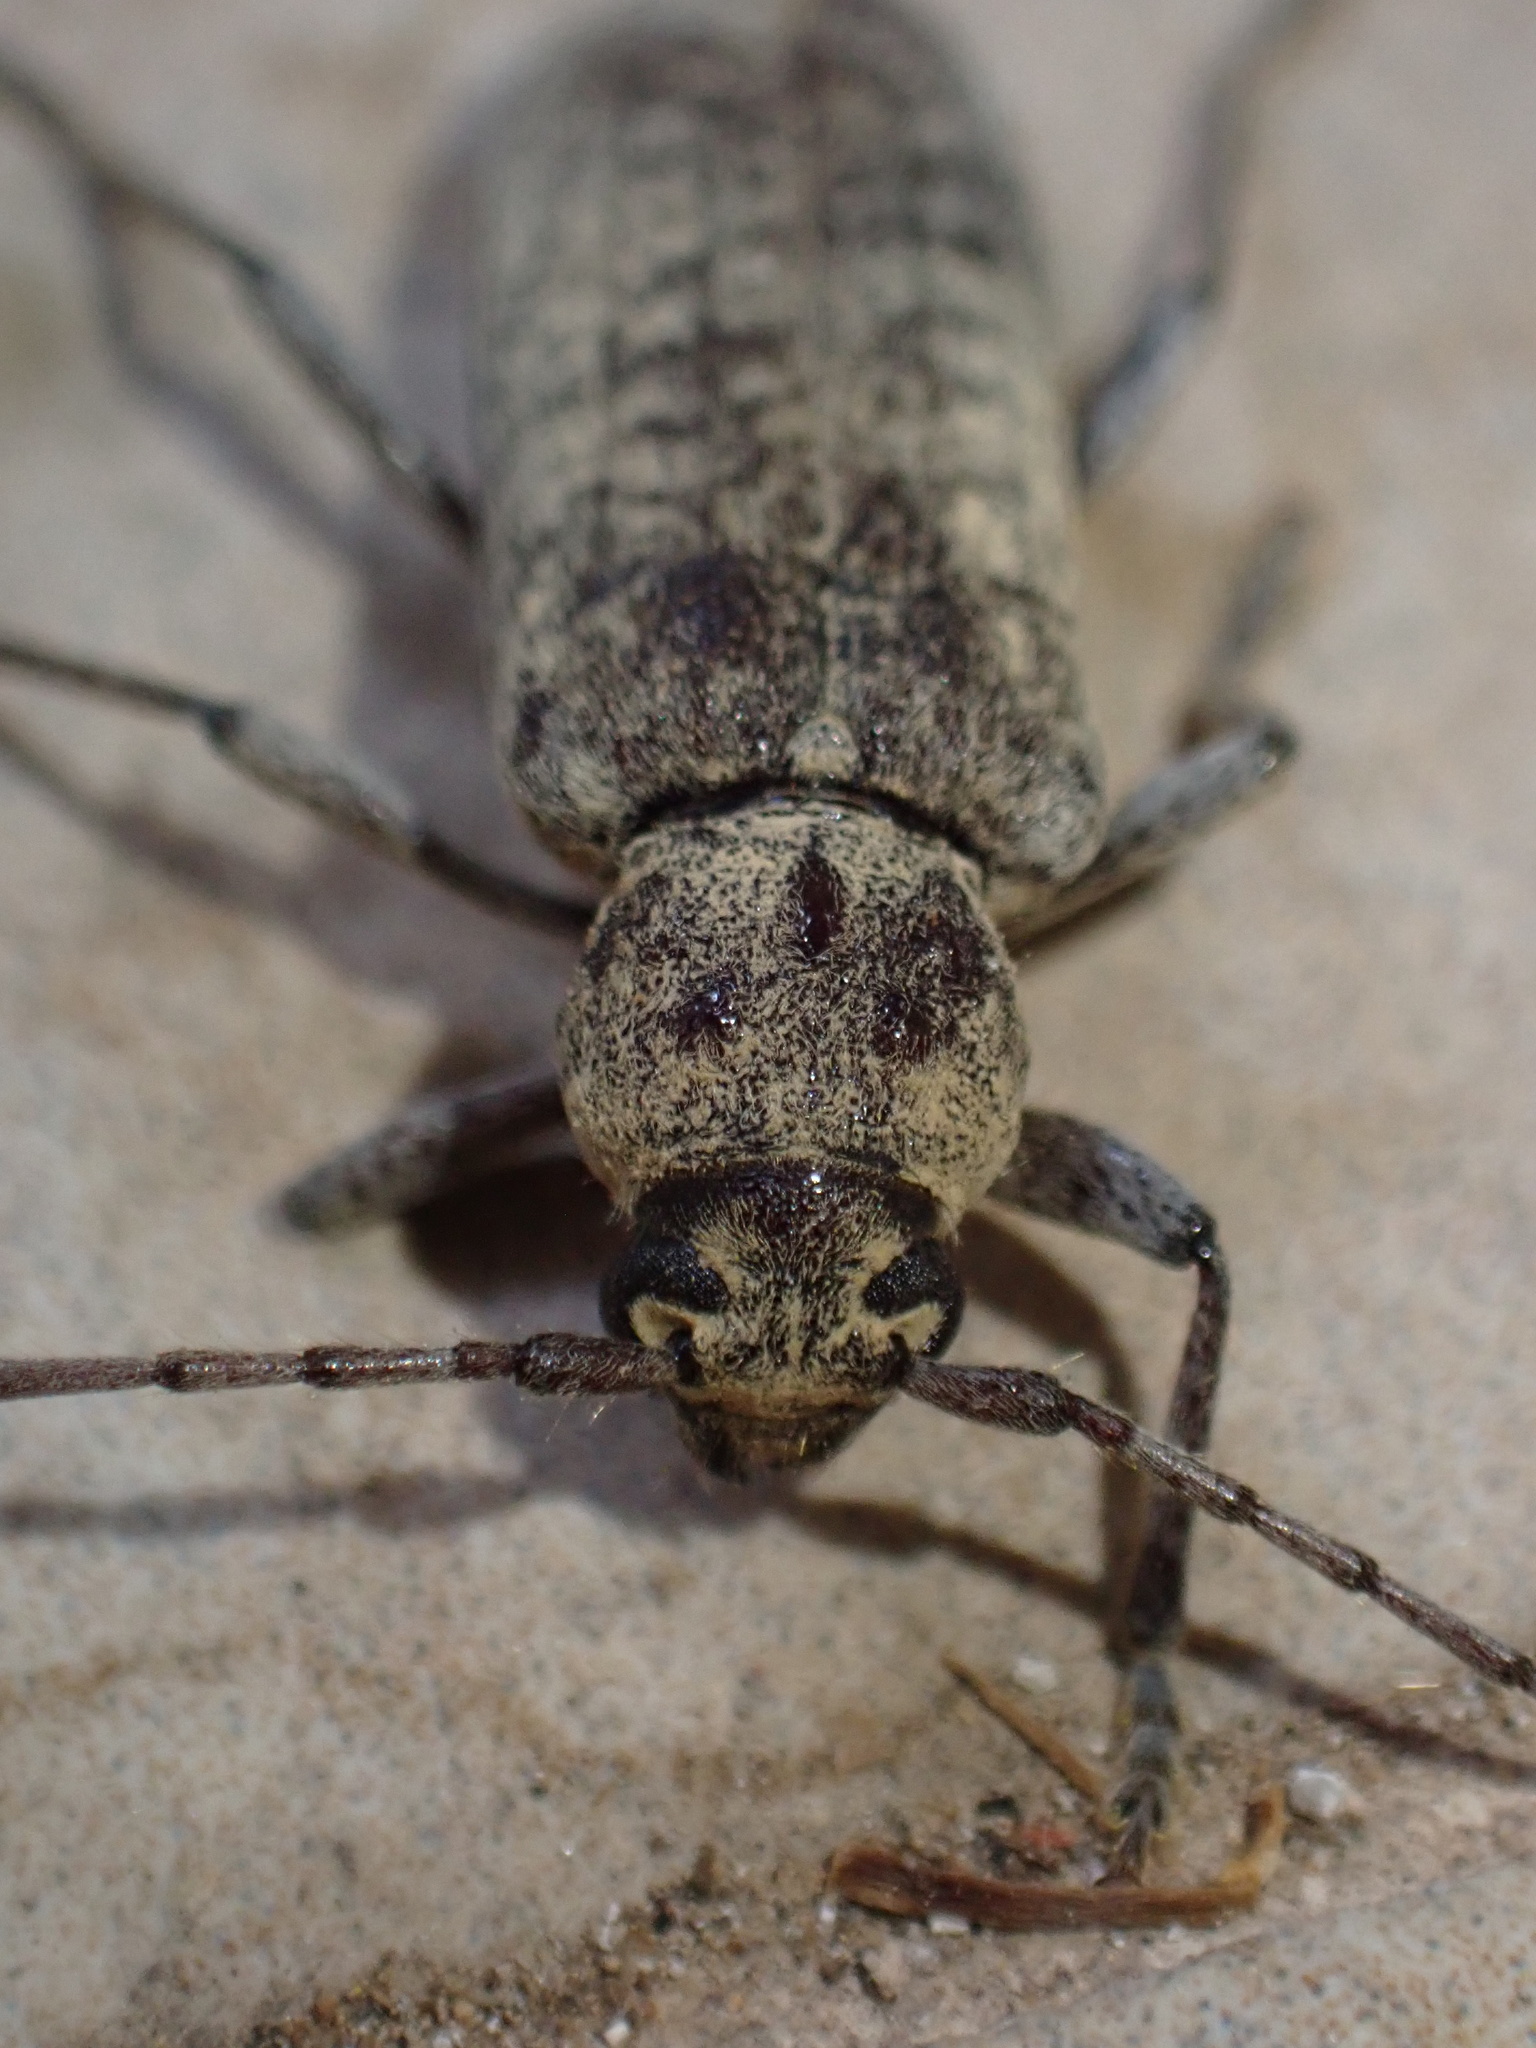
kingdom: Animalia
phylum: Arthropoda
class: Insecta
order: Coleoptera
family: Cerambycidae
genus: Trichoferus
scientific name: Trichoferus holosericeus
